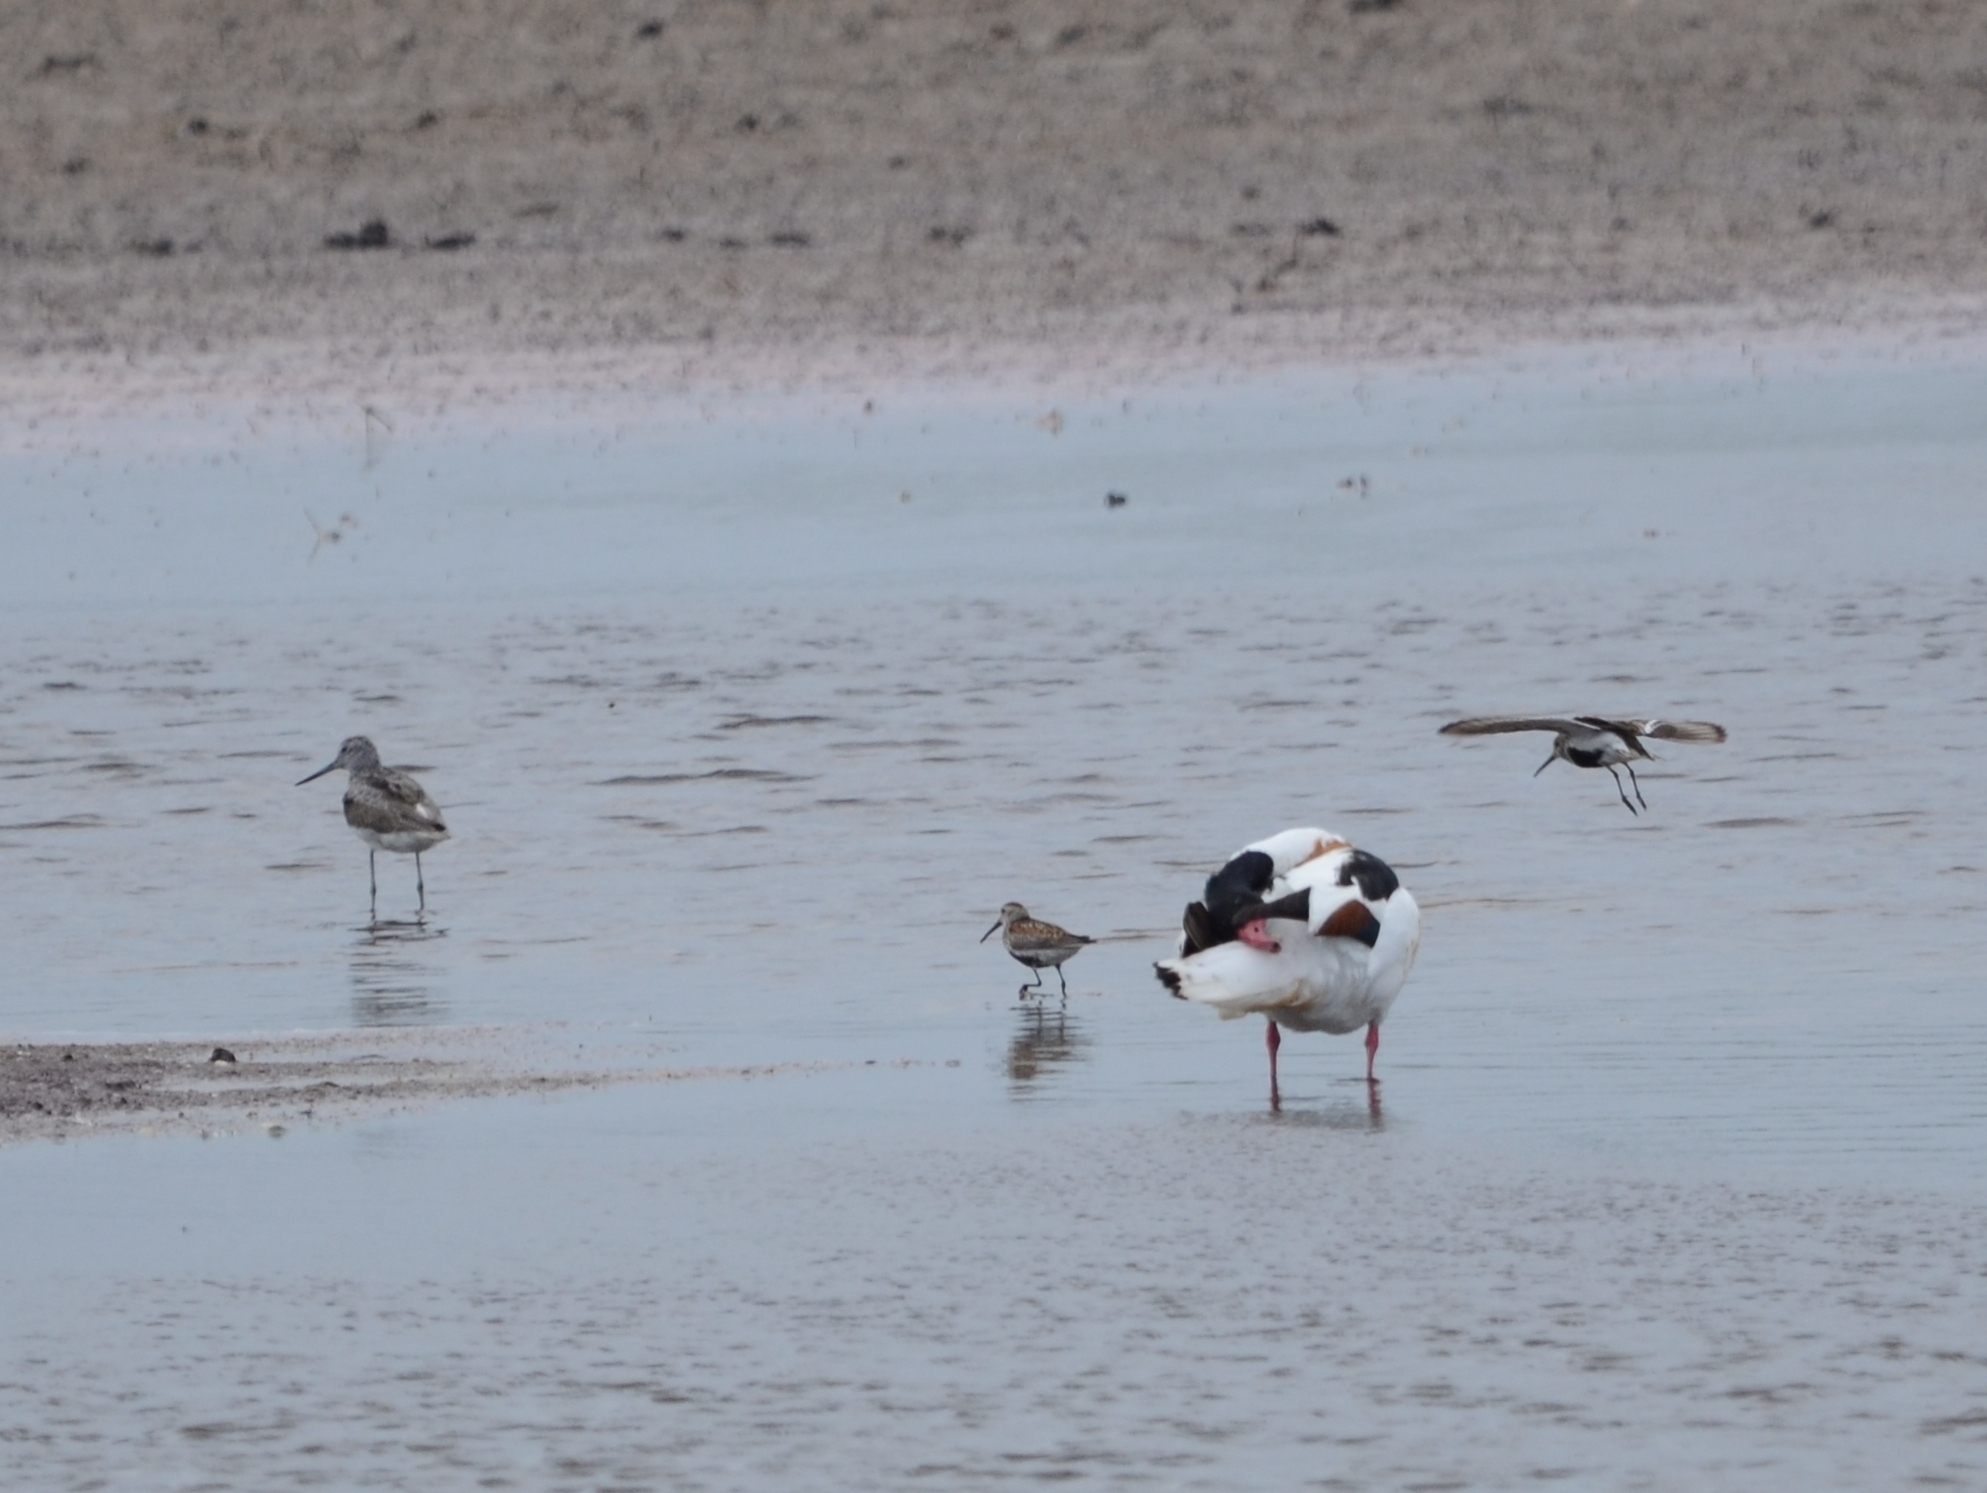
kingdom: Animalia
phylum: Chordata
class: Aves
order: Charadriiformes
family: Scolopacidae
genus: Calidris
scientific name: Calidris alpina
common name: Dunlin
